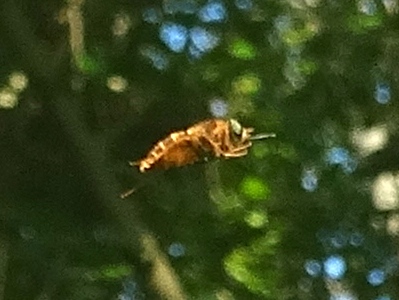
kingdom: Animalia
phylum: Arthropoda
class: Insecta
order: Diptera
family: Syrphidae
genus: Palpada
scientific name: Palpada
